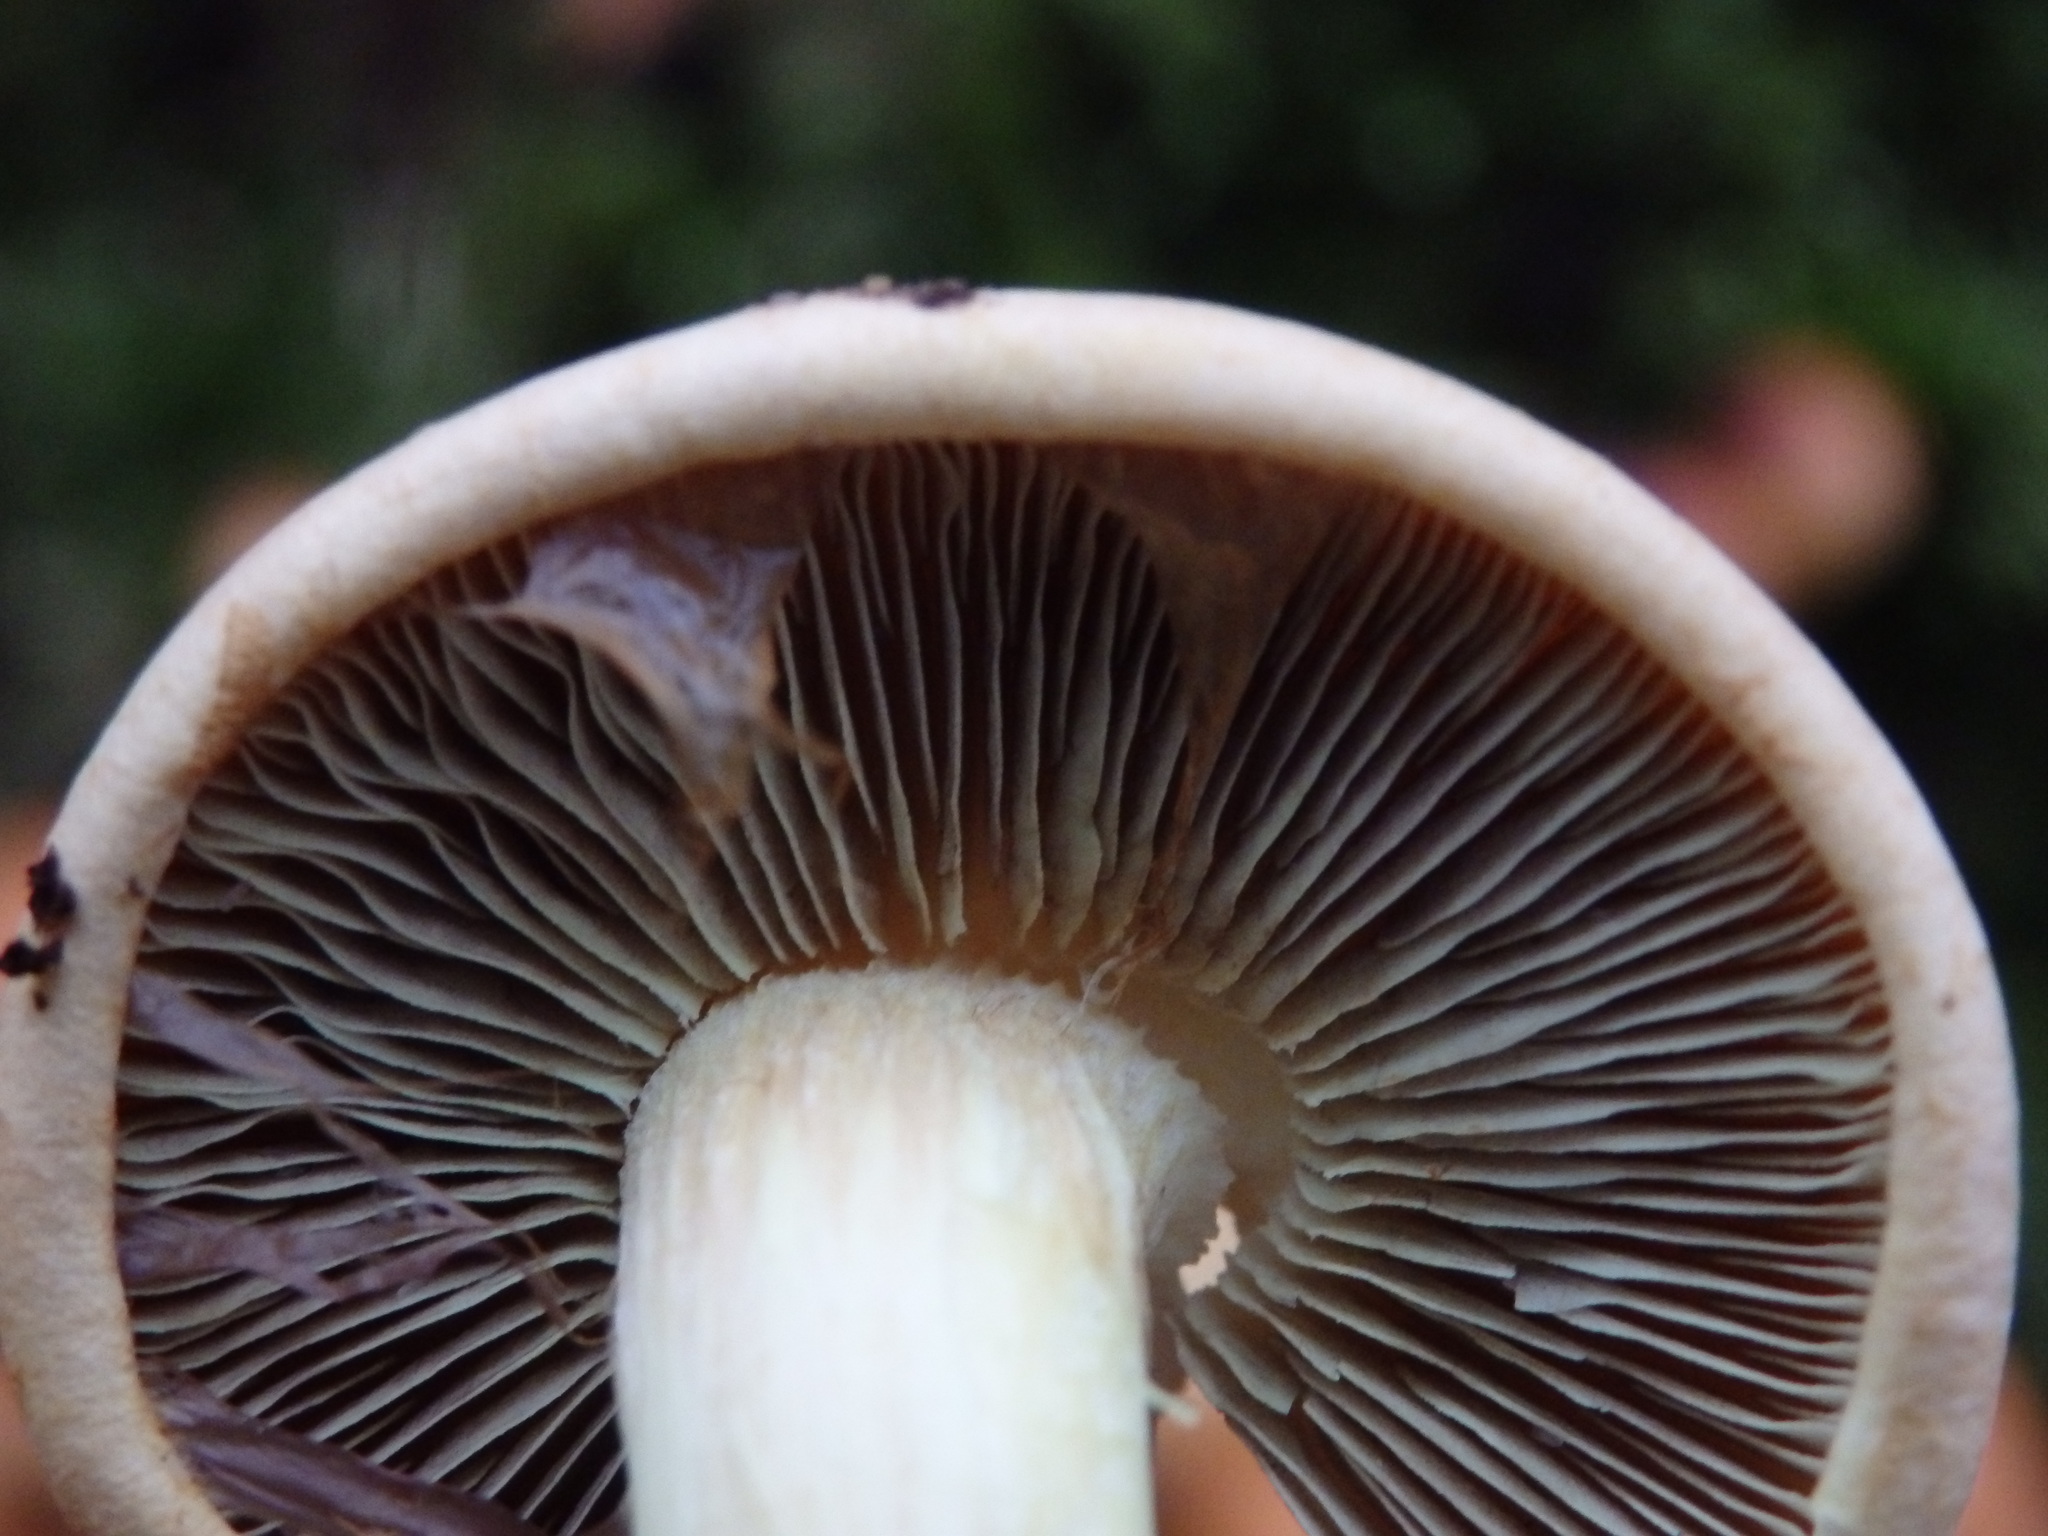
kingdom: Fungi
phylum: Basidiomycota
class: Agaricomycetes
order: Agaricales
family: Strophariaceae
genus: Hypholoma
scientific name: Hypholoma lateritium
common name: Brick caps
